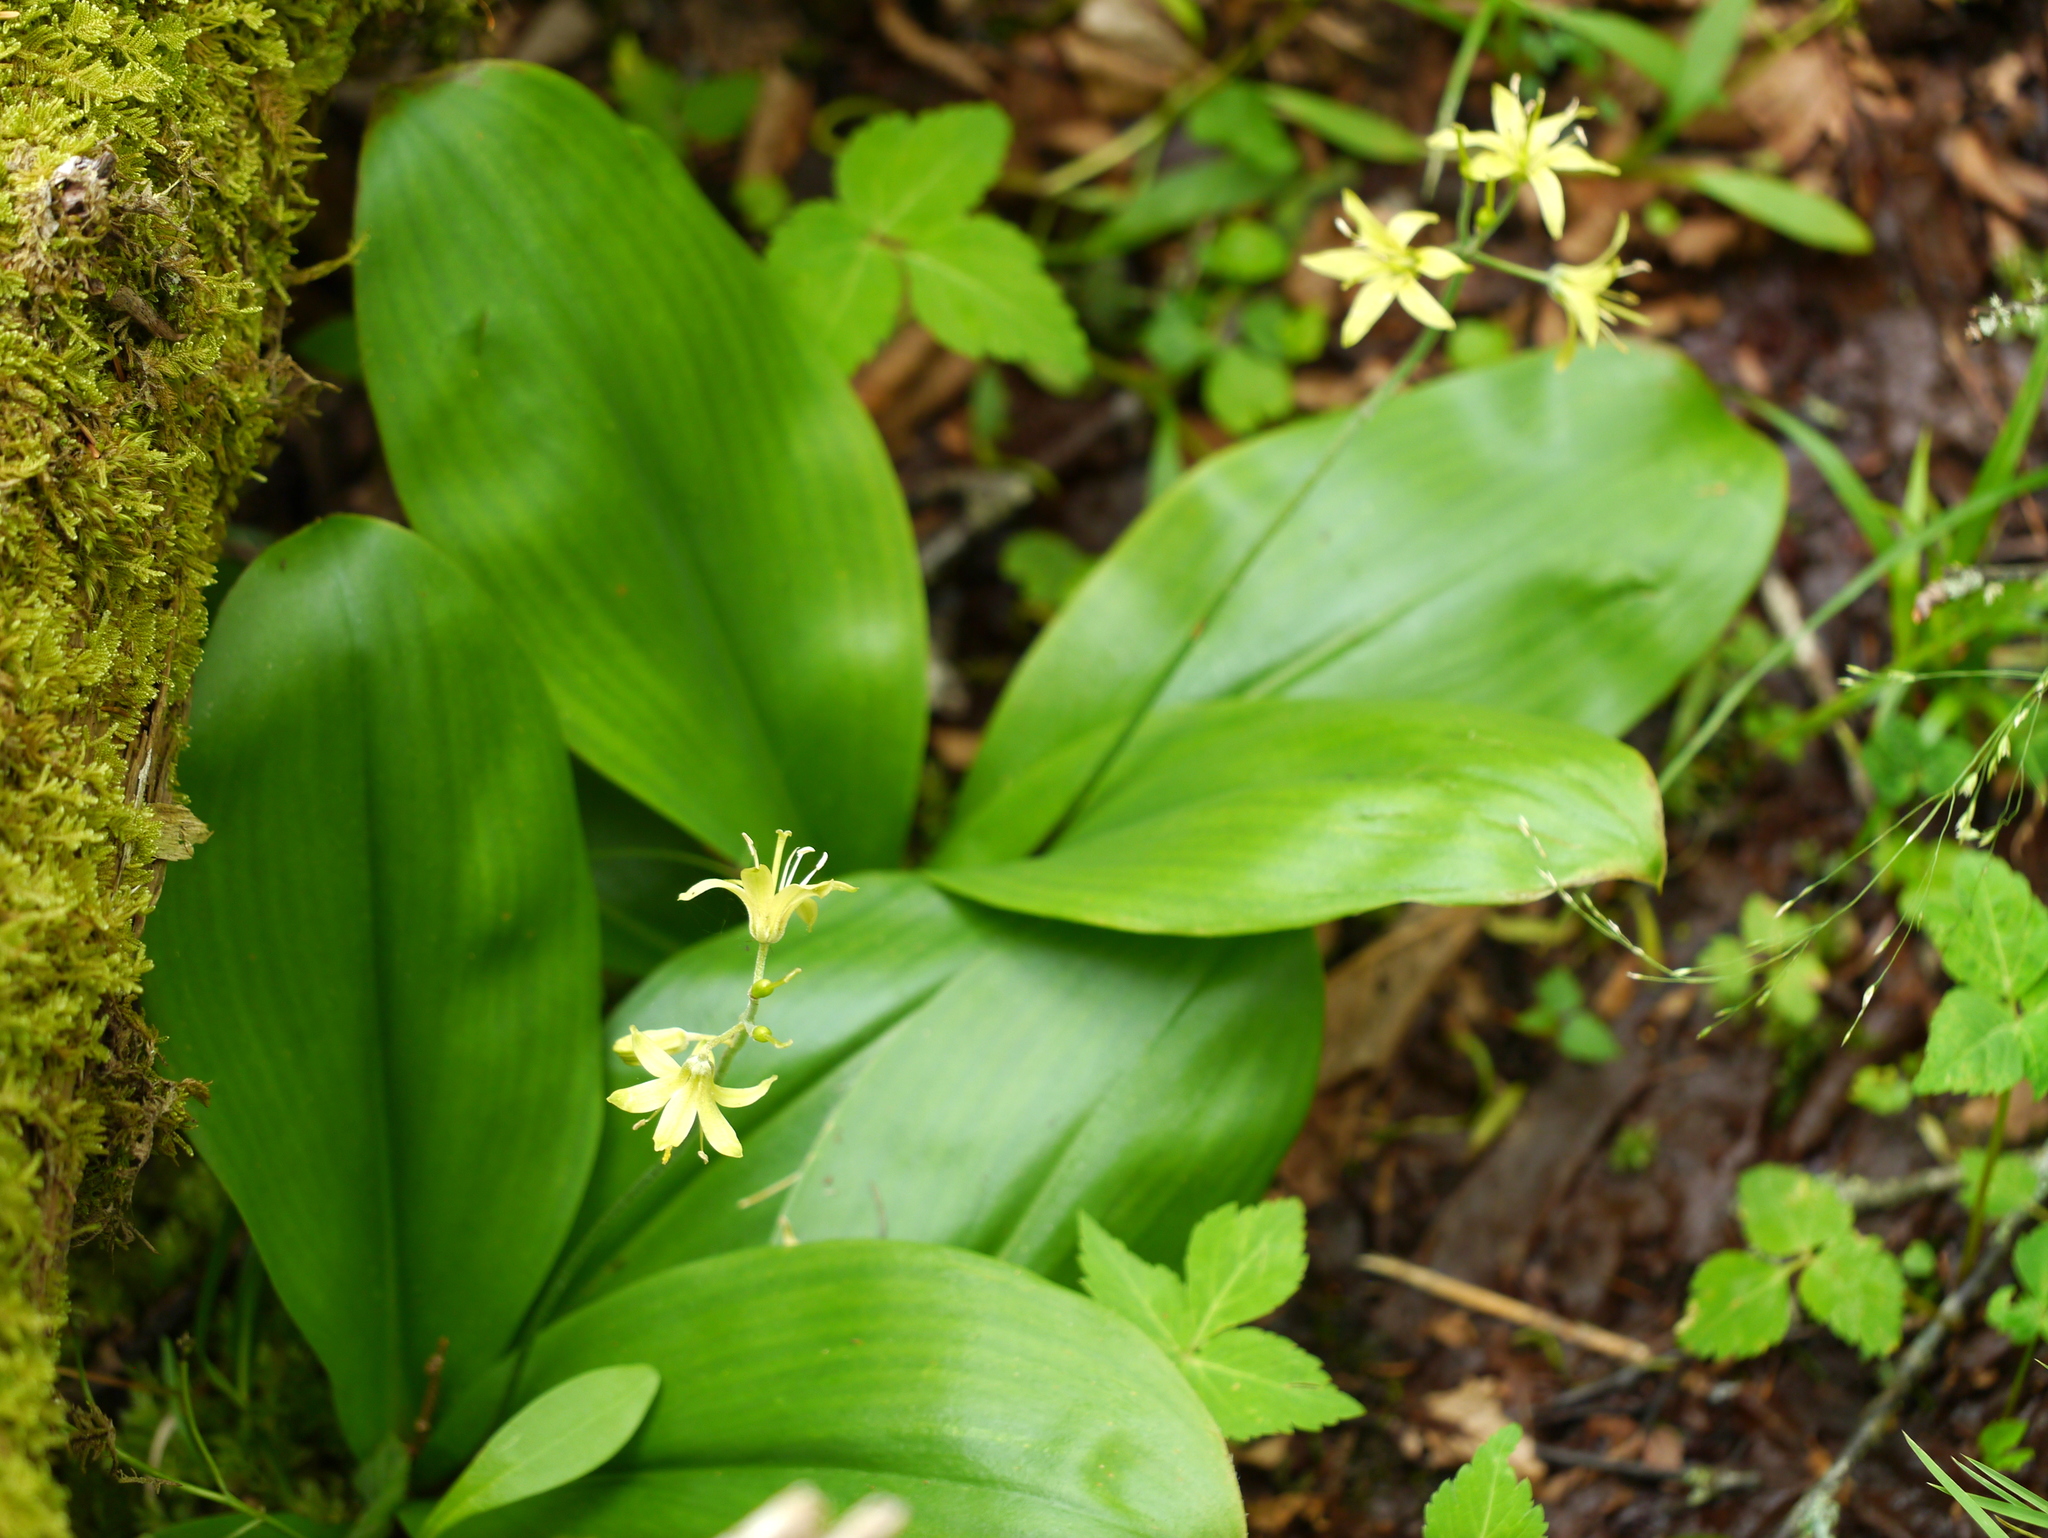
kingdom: Plantae
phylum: Tracheophyta
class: Liliopsida
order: Liliales
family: Liliaceae
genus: Clintonia
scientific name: Clintonia borealis
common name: Yellow clintonia
